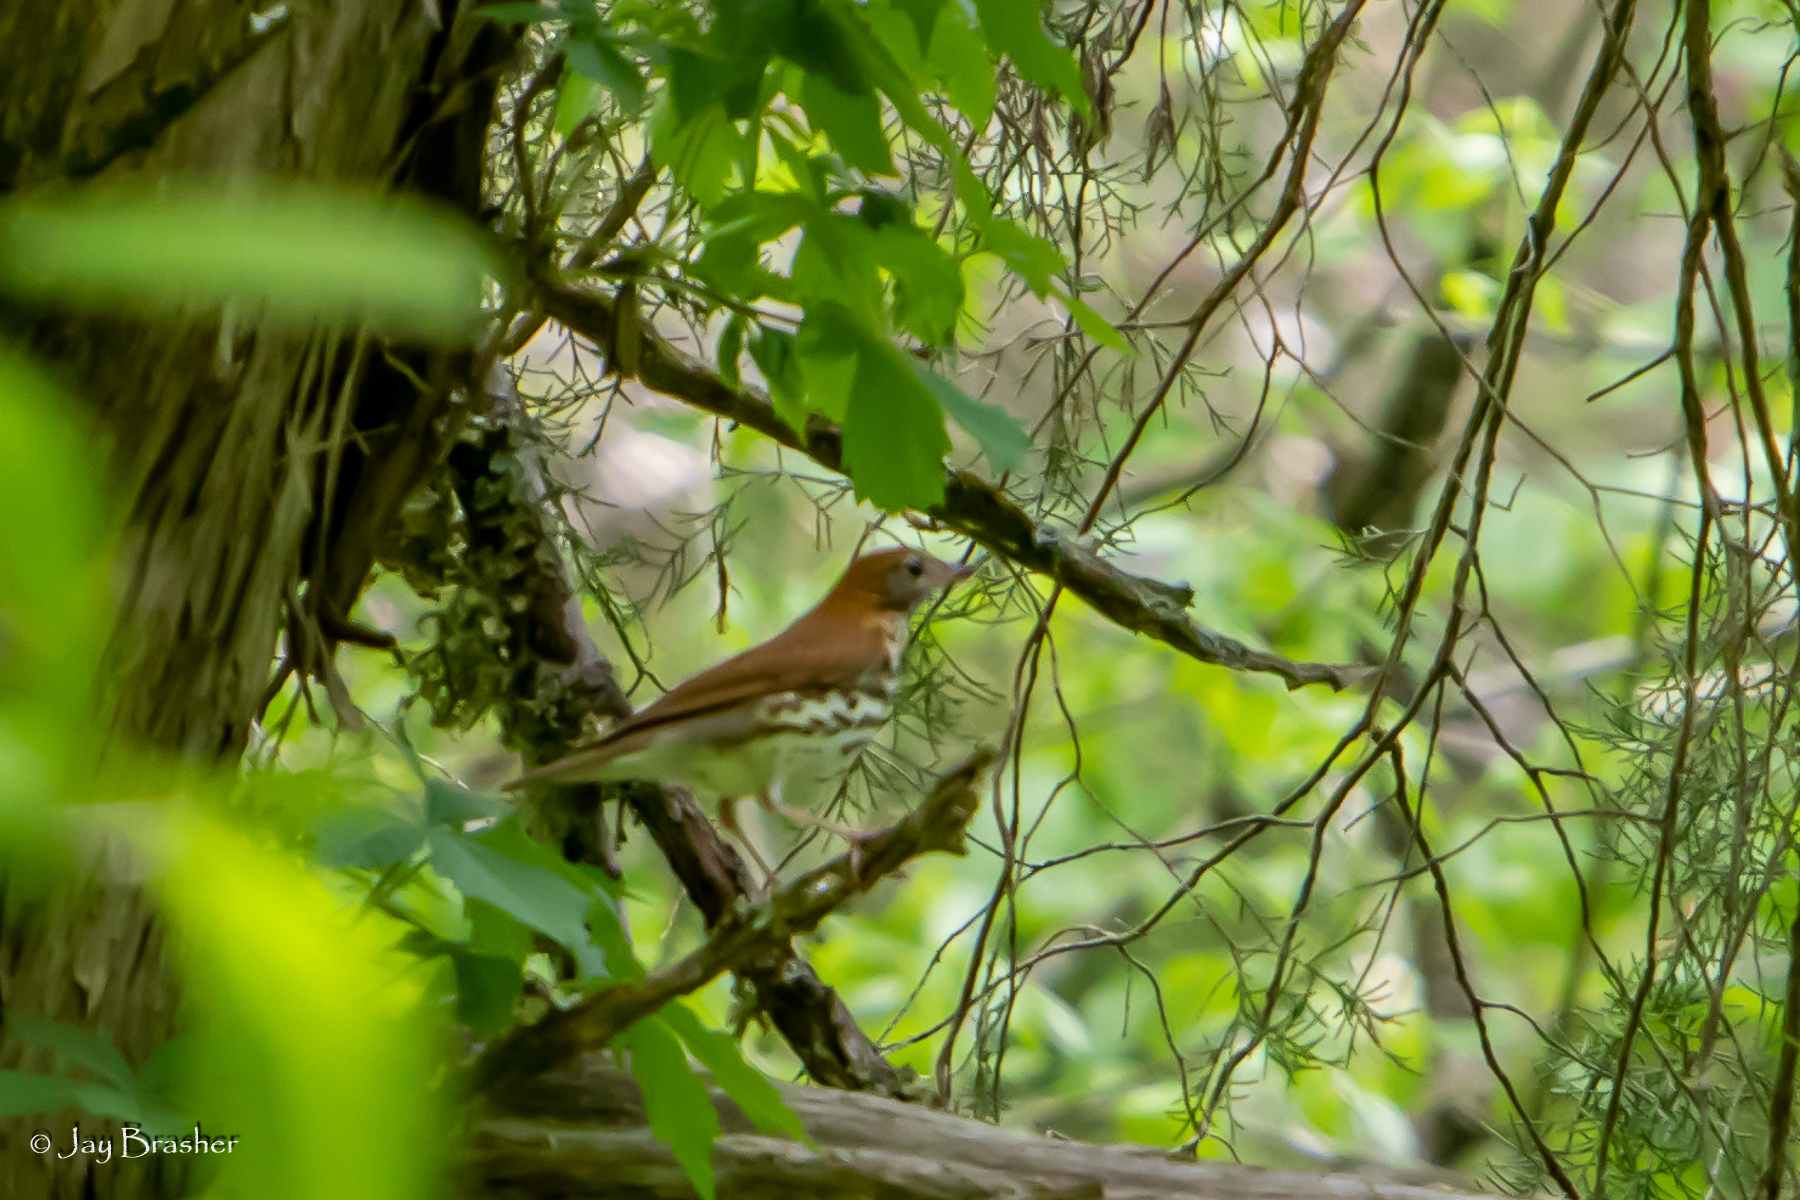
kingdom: Animalia
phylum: Chordata
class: Aves
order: Passeriformes
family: Turdidae
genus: Hylocichla
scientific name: Hylocichla mustelina
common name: Wood thrush
